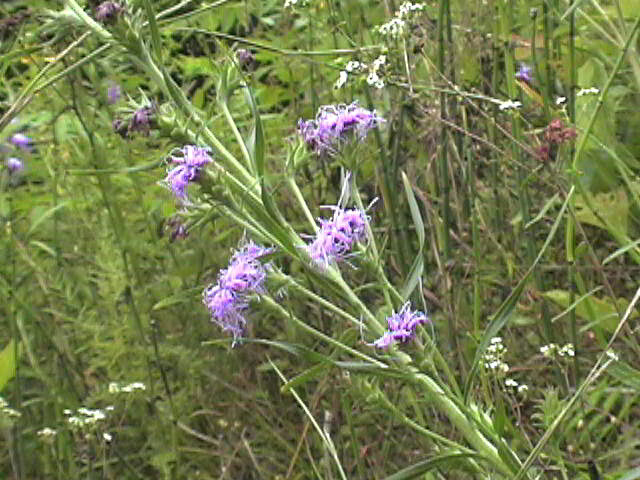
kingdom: Plantae
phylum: Tracheophyta
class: Magnoliopsida
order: Asterales
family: Asteraceae
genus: Liatris
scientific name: Liatris squarrosa
